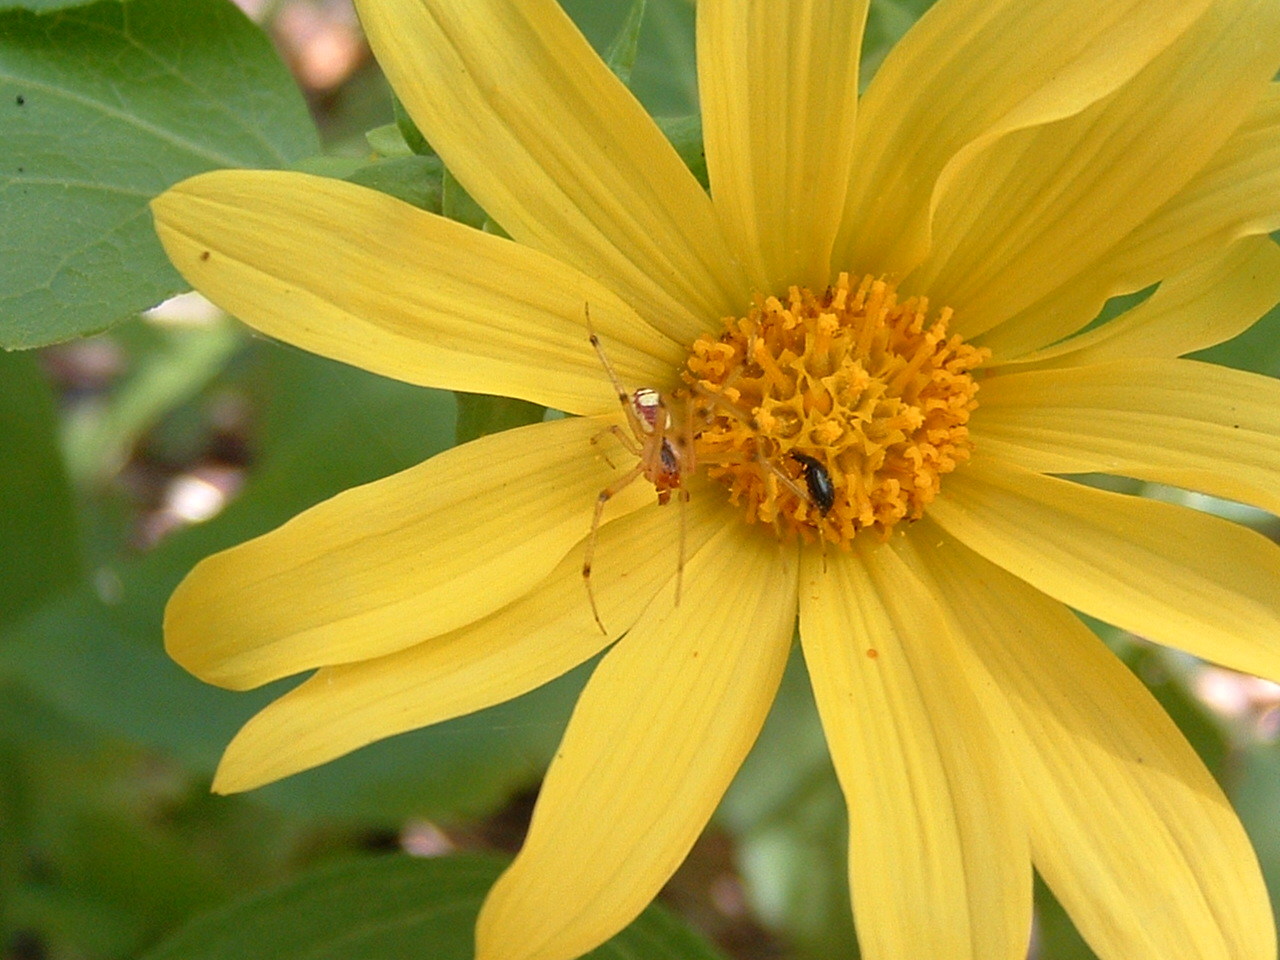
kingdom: Plantae
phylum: Tracheophyta
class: Magnoliopsida
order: Asterales
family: Asteraceae
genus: Venegasia
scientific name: Venegasia carpesioides
